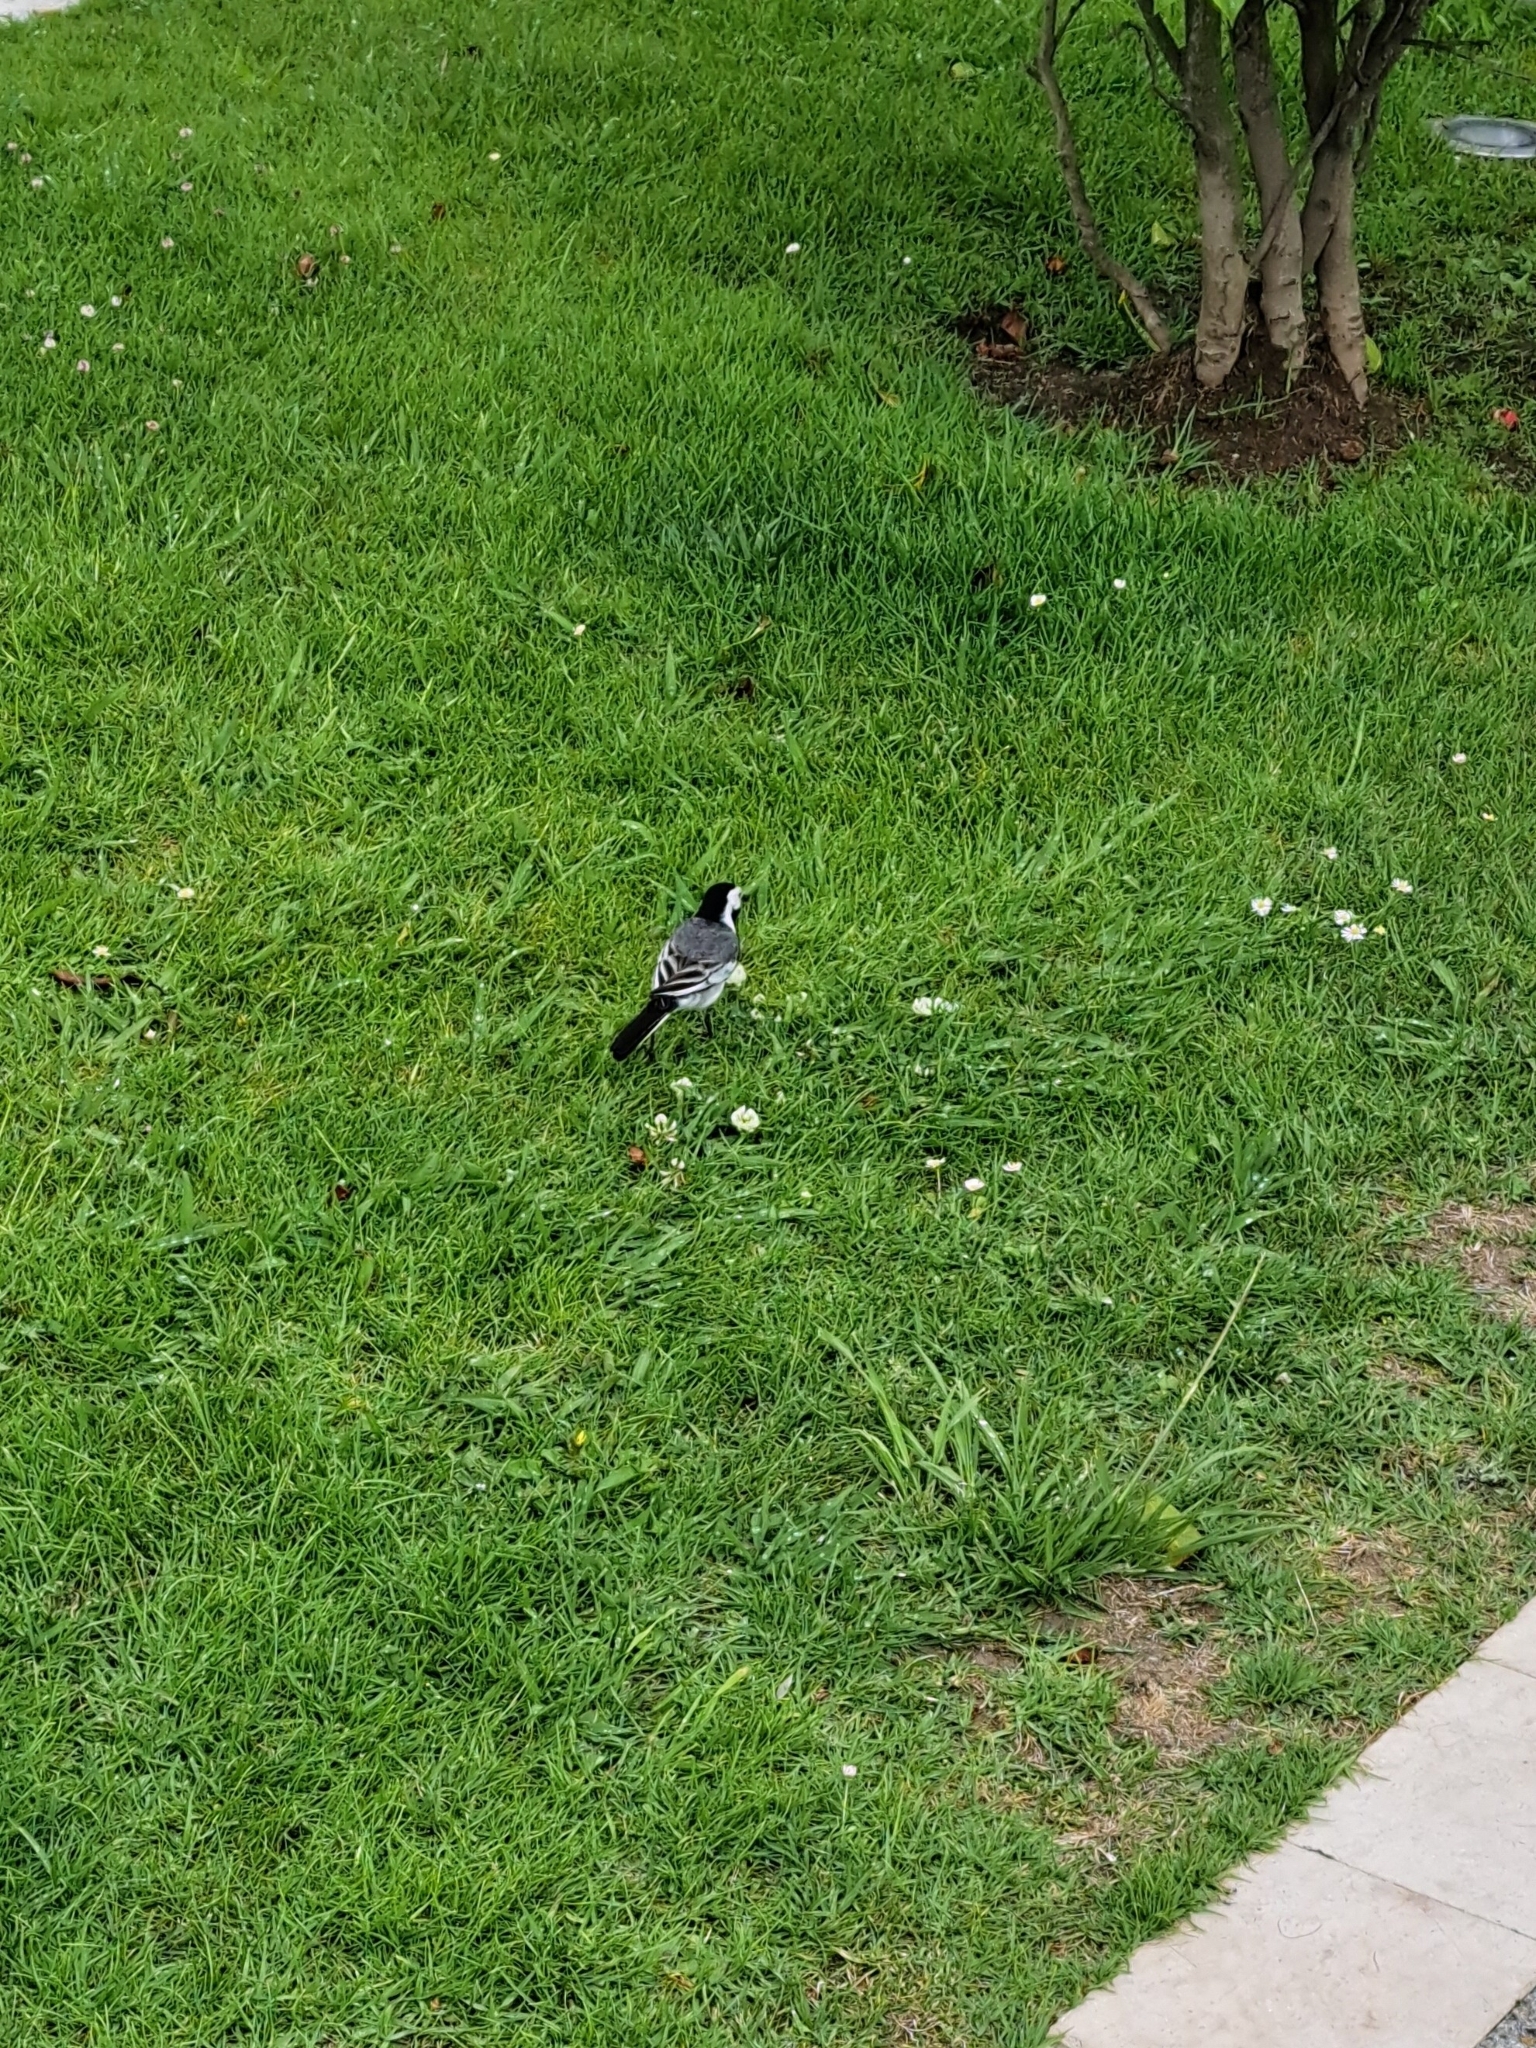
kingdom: Animalia
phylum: Chordata
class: Aves
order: Passeriformes
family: Motacillidae
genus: Motacilla
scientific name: Motacilla alba
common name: White wagtail
